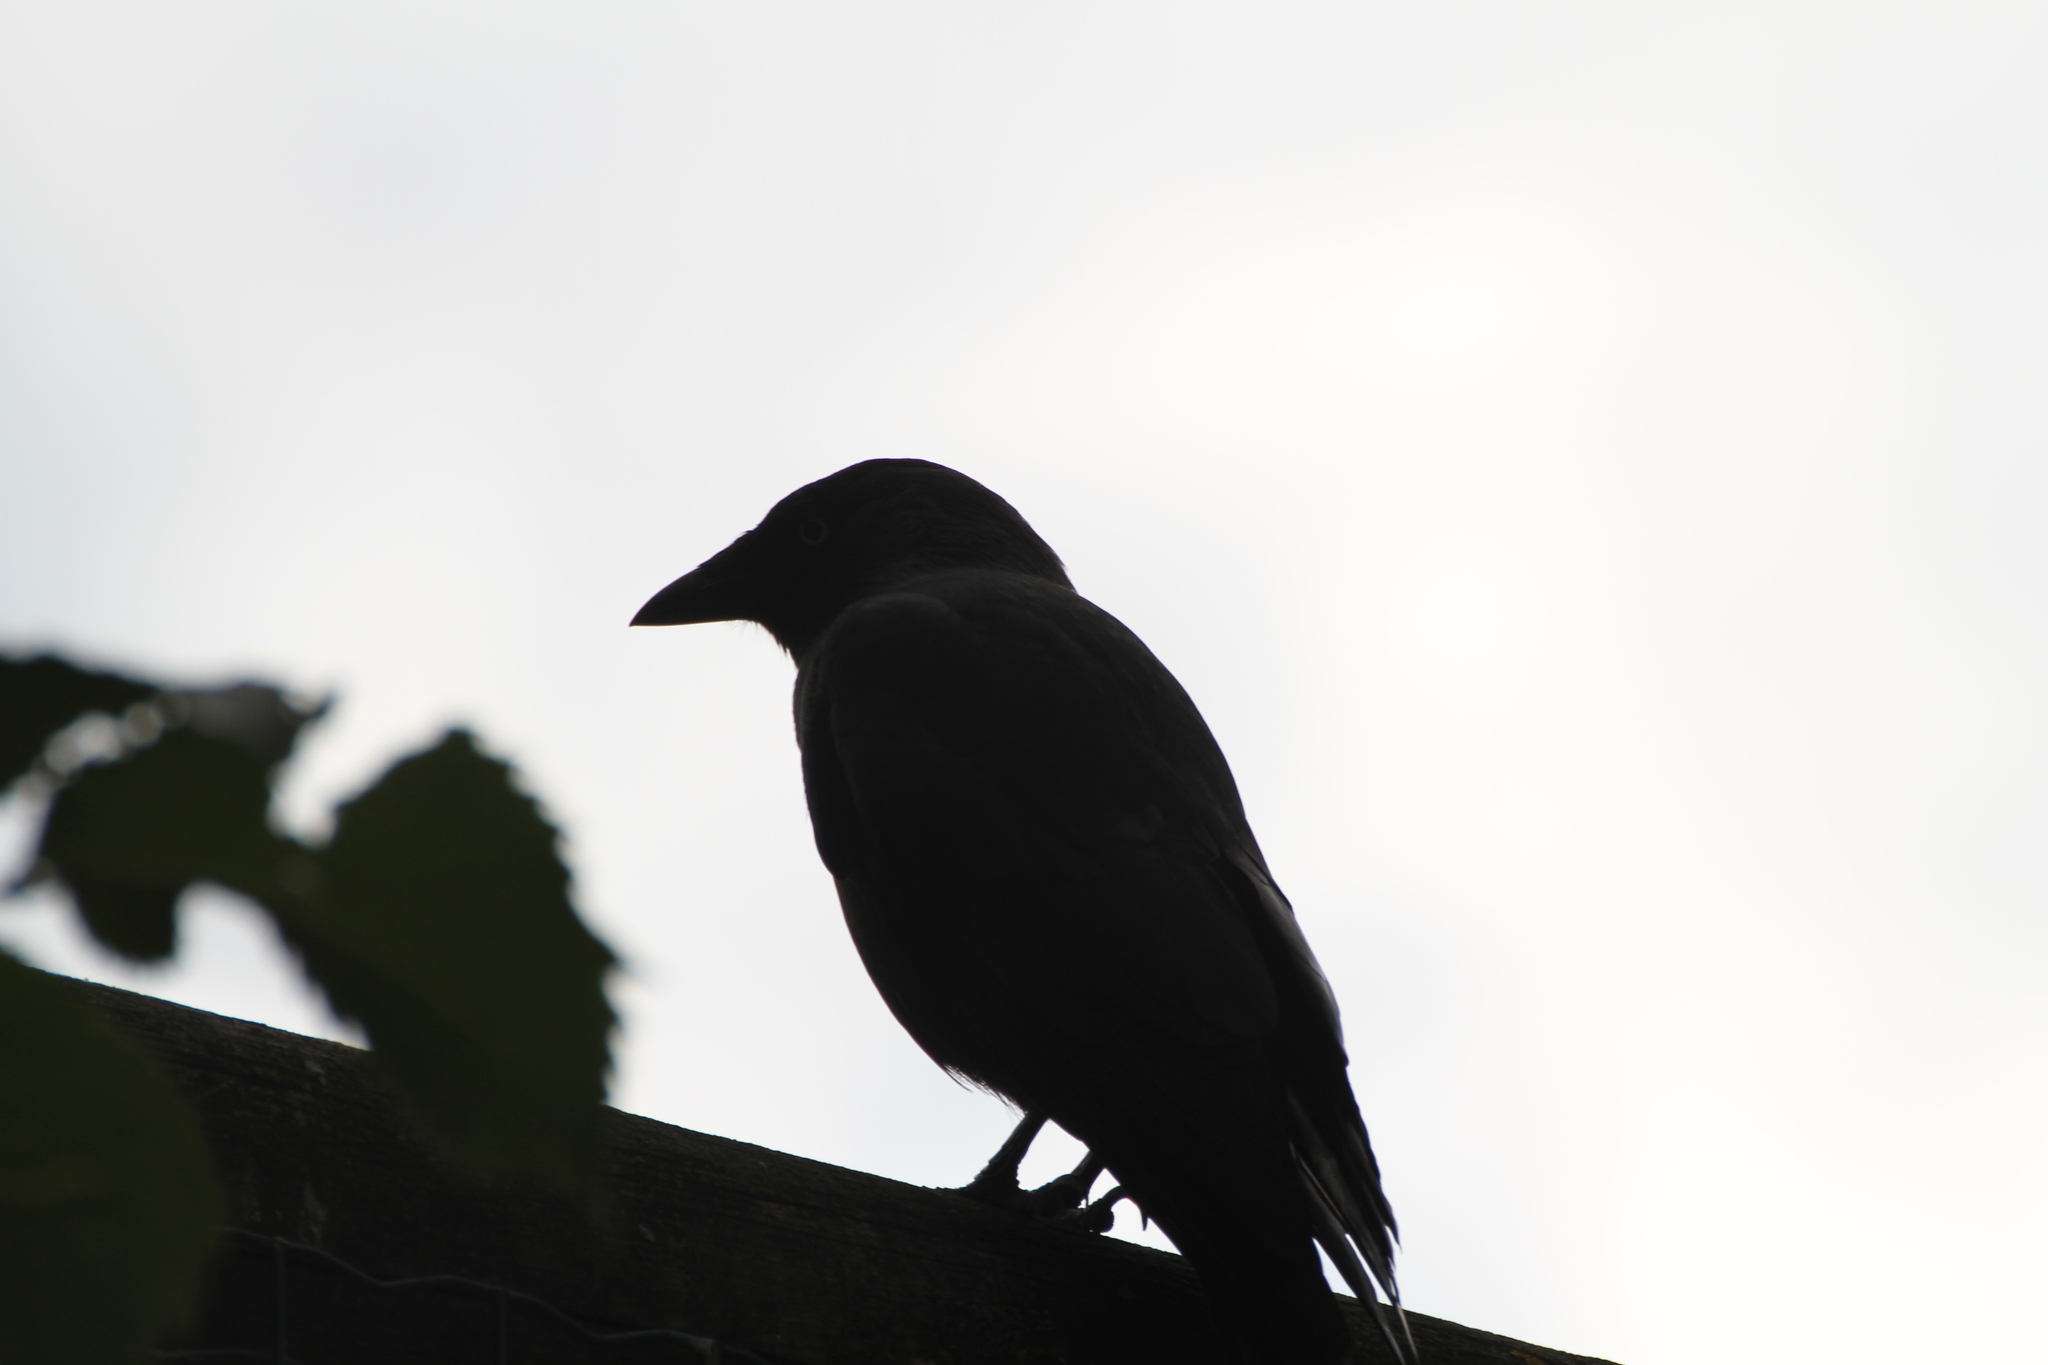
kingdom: Animalia
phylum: Chordata
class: Aves
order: Passeriformes
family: Corvidae
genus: Coloeus
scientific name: Coloeus monedula
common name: Western jackdaw
